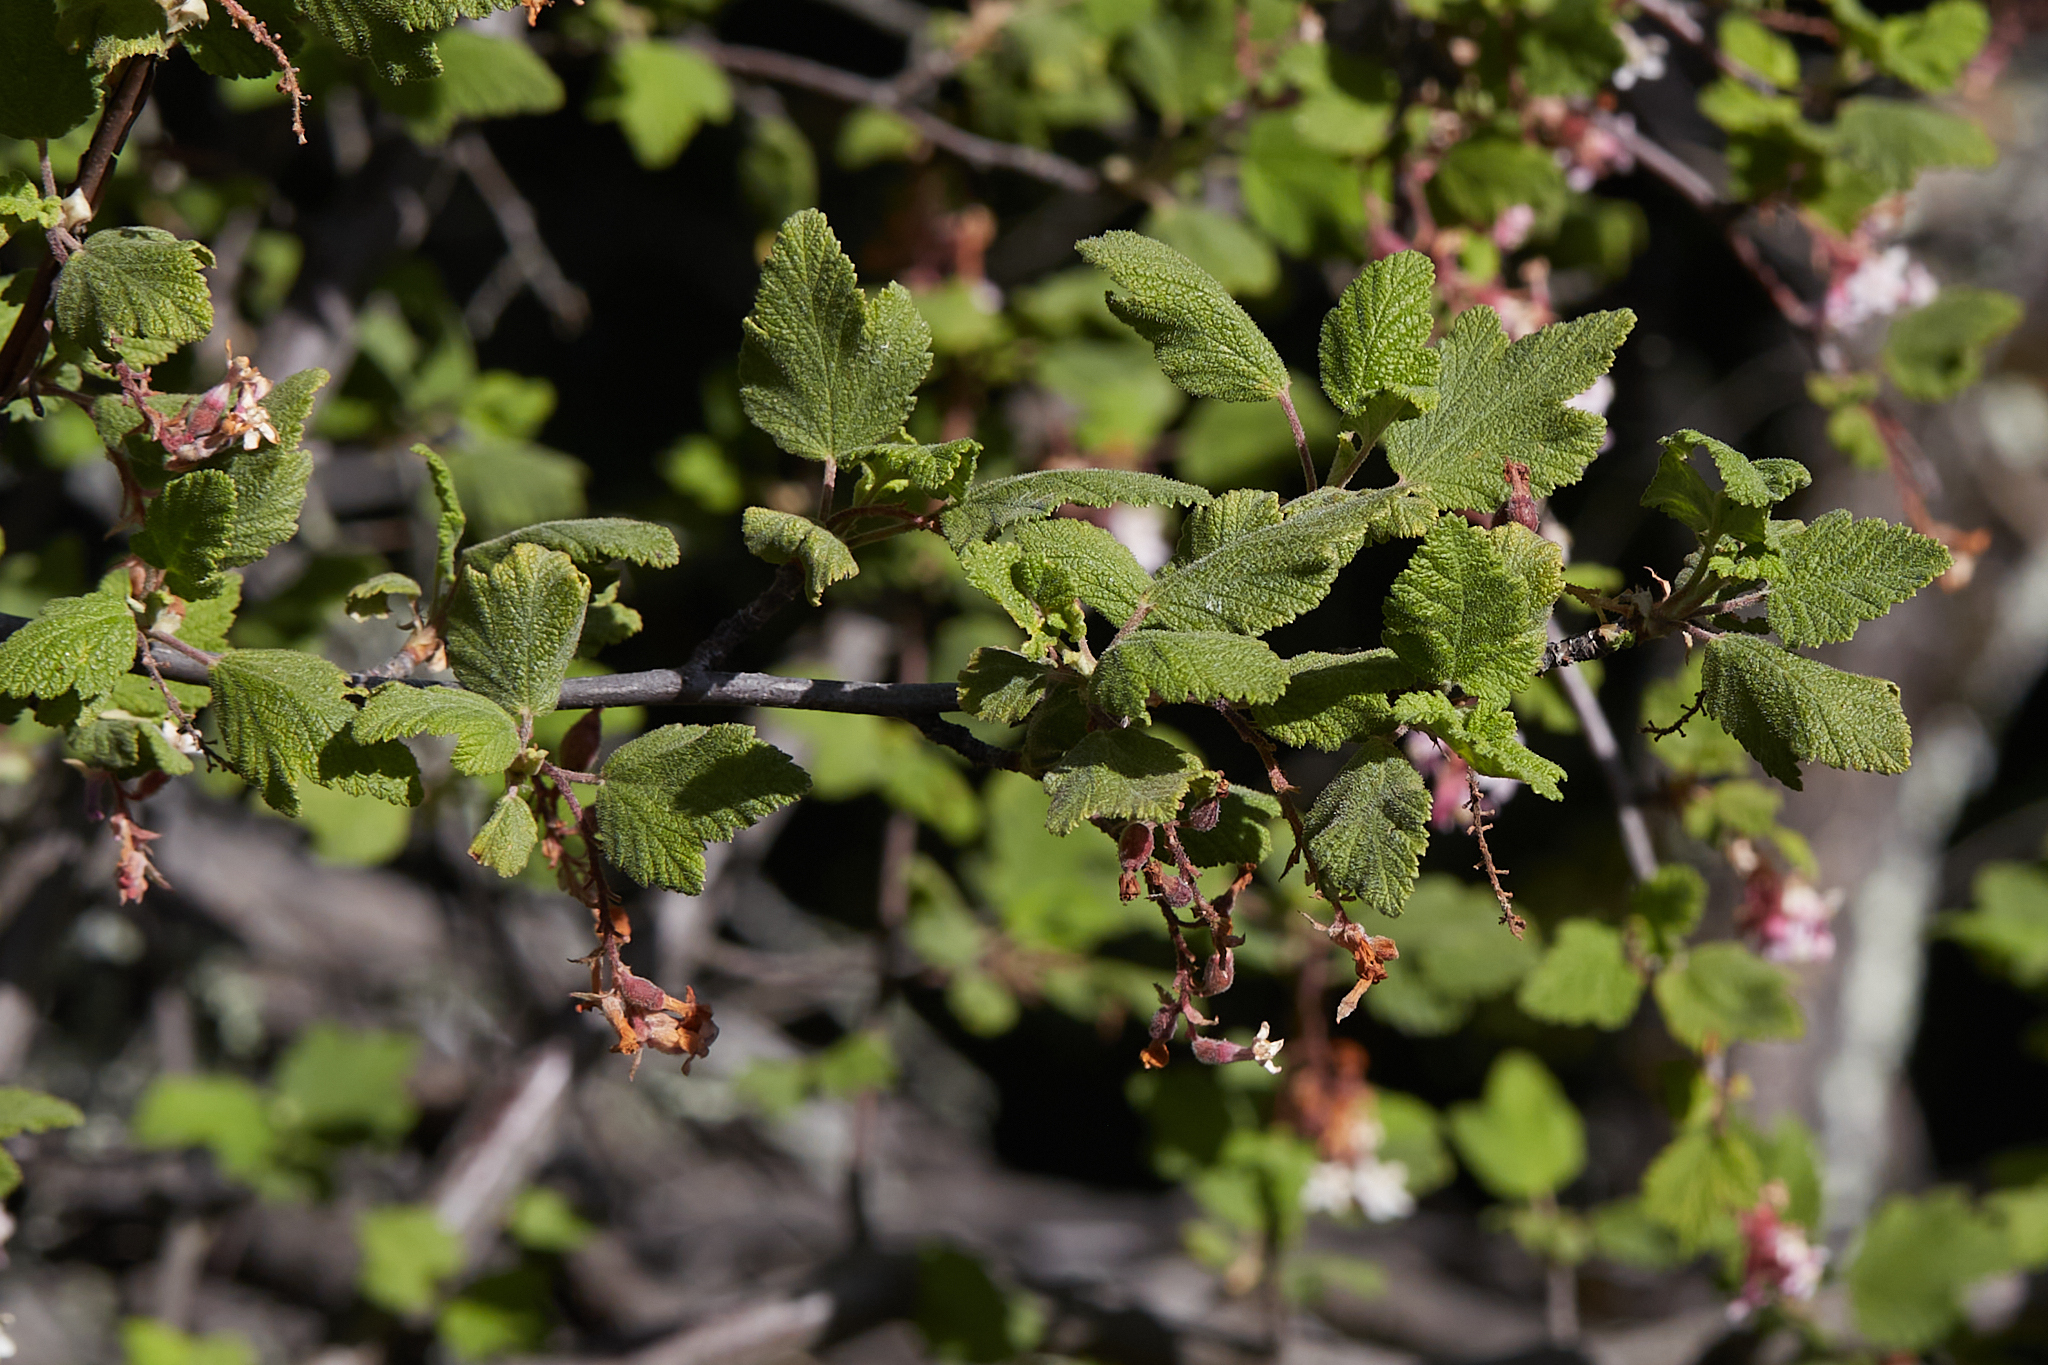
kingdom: Plantae
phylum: Tracheophyta
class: Magnoliopsida
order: Saxifragales
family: Grossulariaceae
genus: Ribes
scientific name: Ribes malvaceum
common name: Chaparral currant
